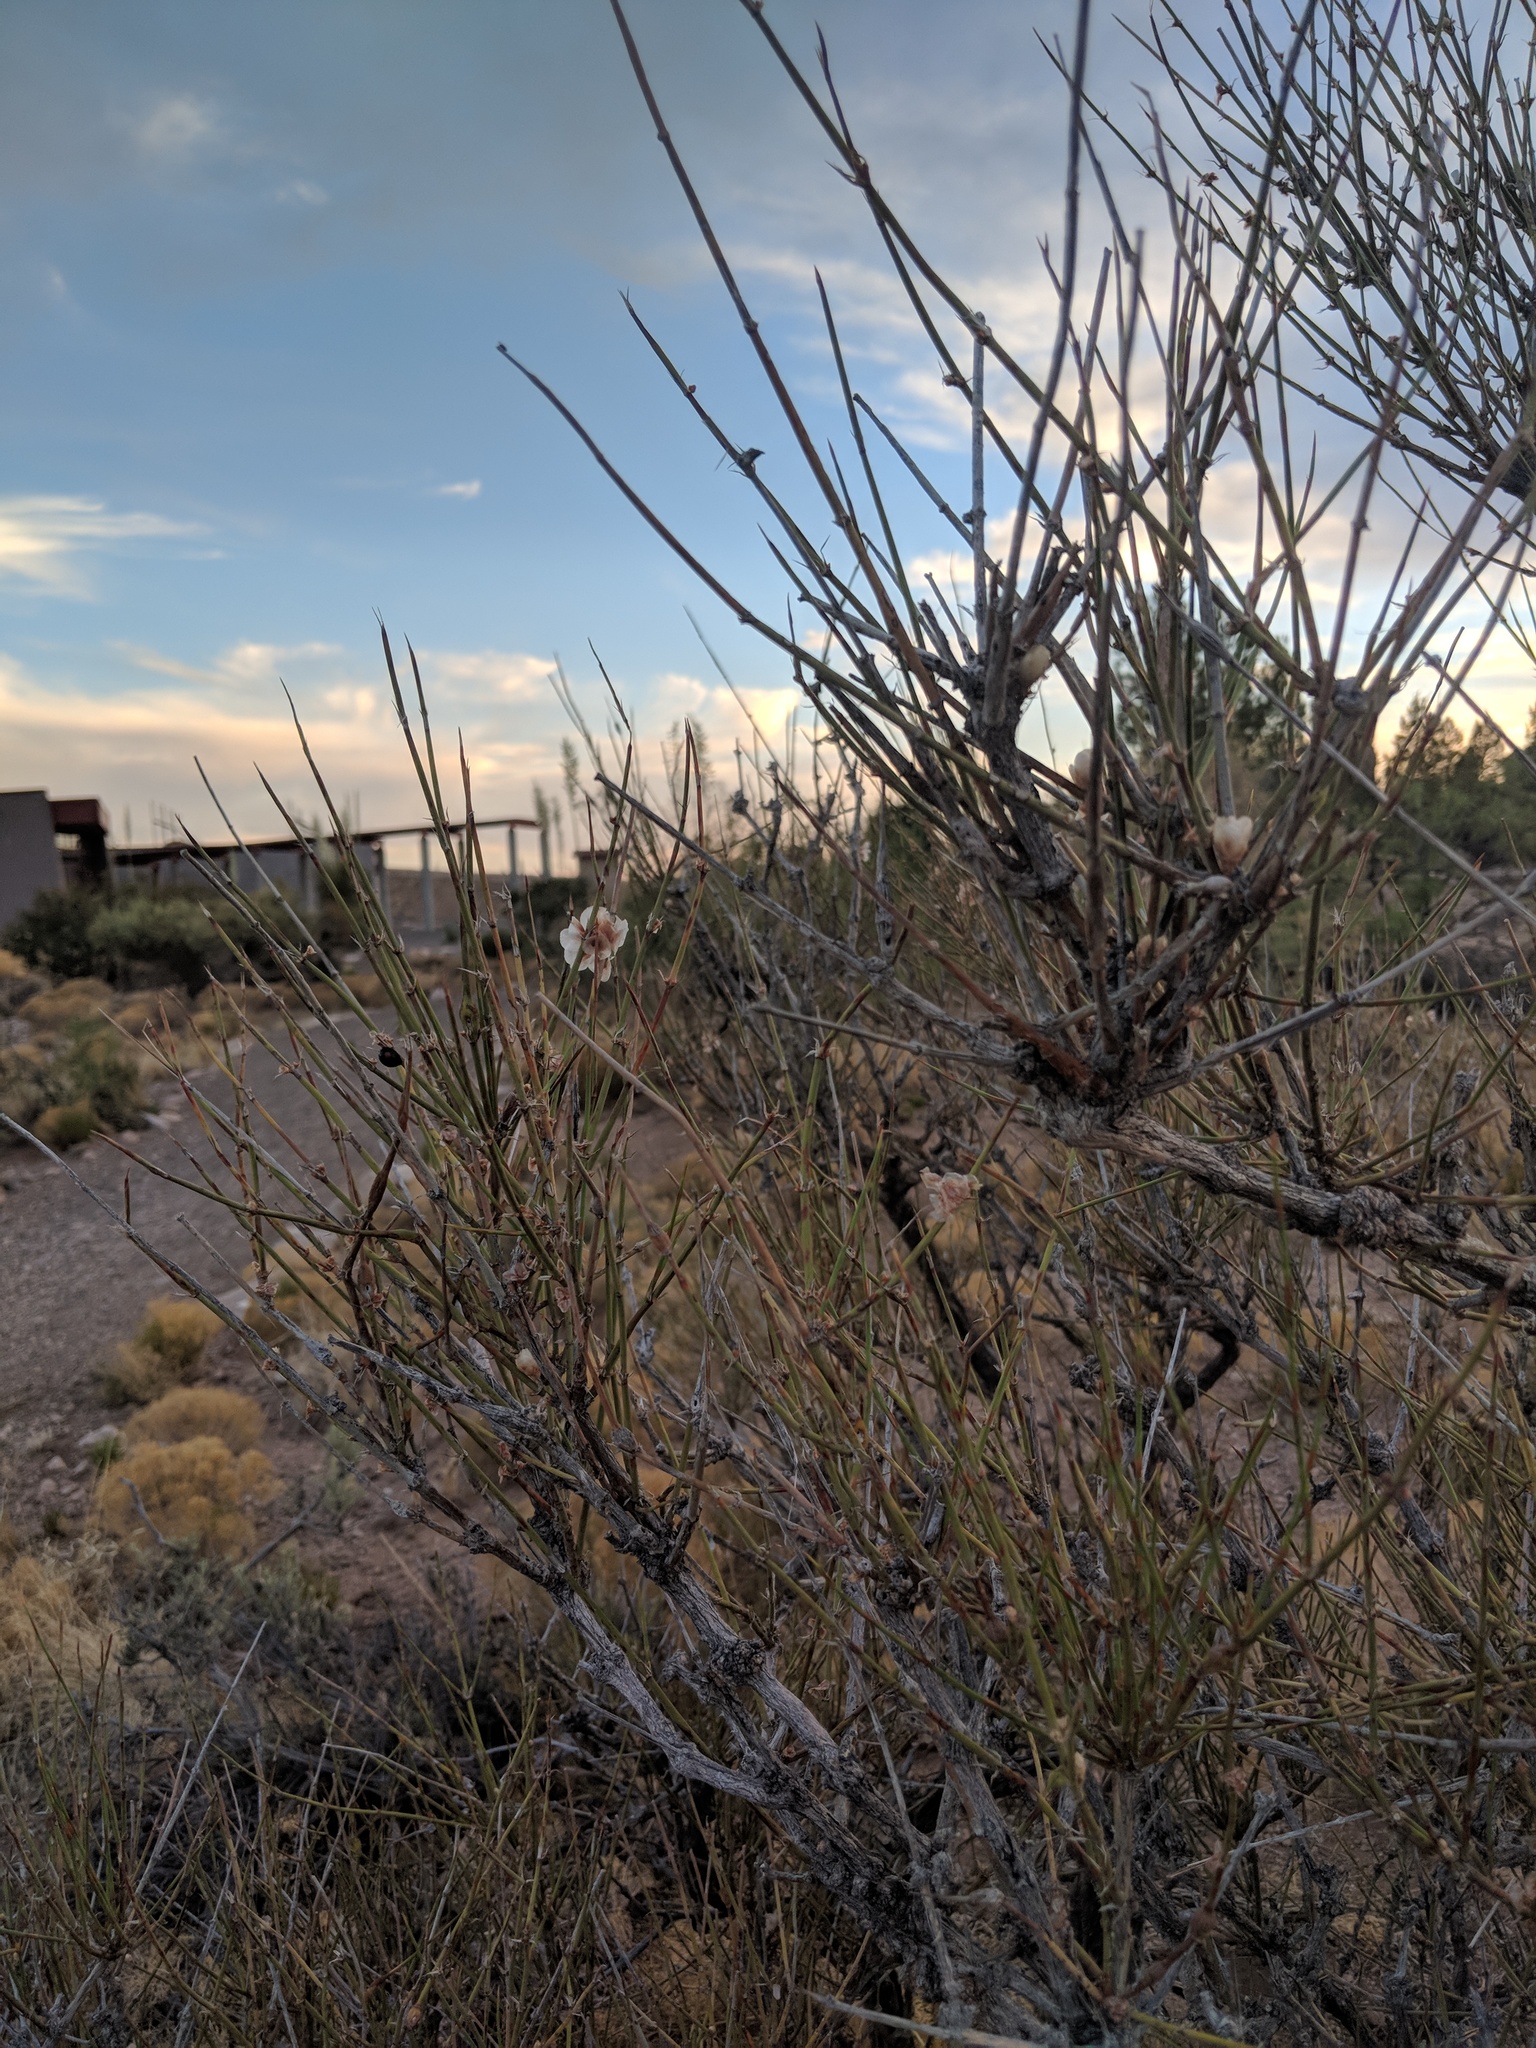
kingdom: Plantae
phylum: Tracheophyta
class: Gnetopsida
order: Ephedrales
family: Ephedraceae
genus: Ephedra
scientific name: Ephedra trifurca
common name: Mexican-tea
